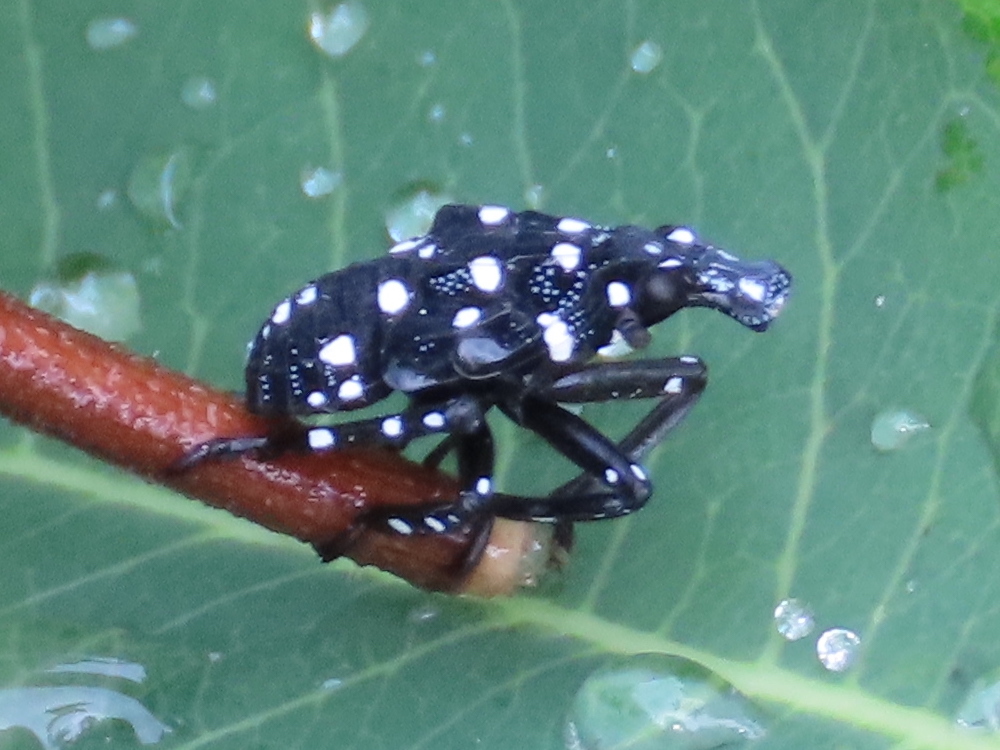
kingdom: Animalia
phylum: Arthropoda
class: Insecta
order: Hemiptera
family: Fulgoridae
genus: Lycorma
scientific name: Lycorma delicatula
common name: Spotted lanternfly
